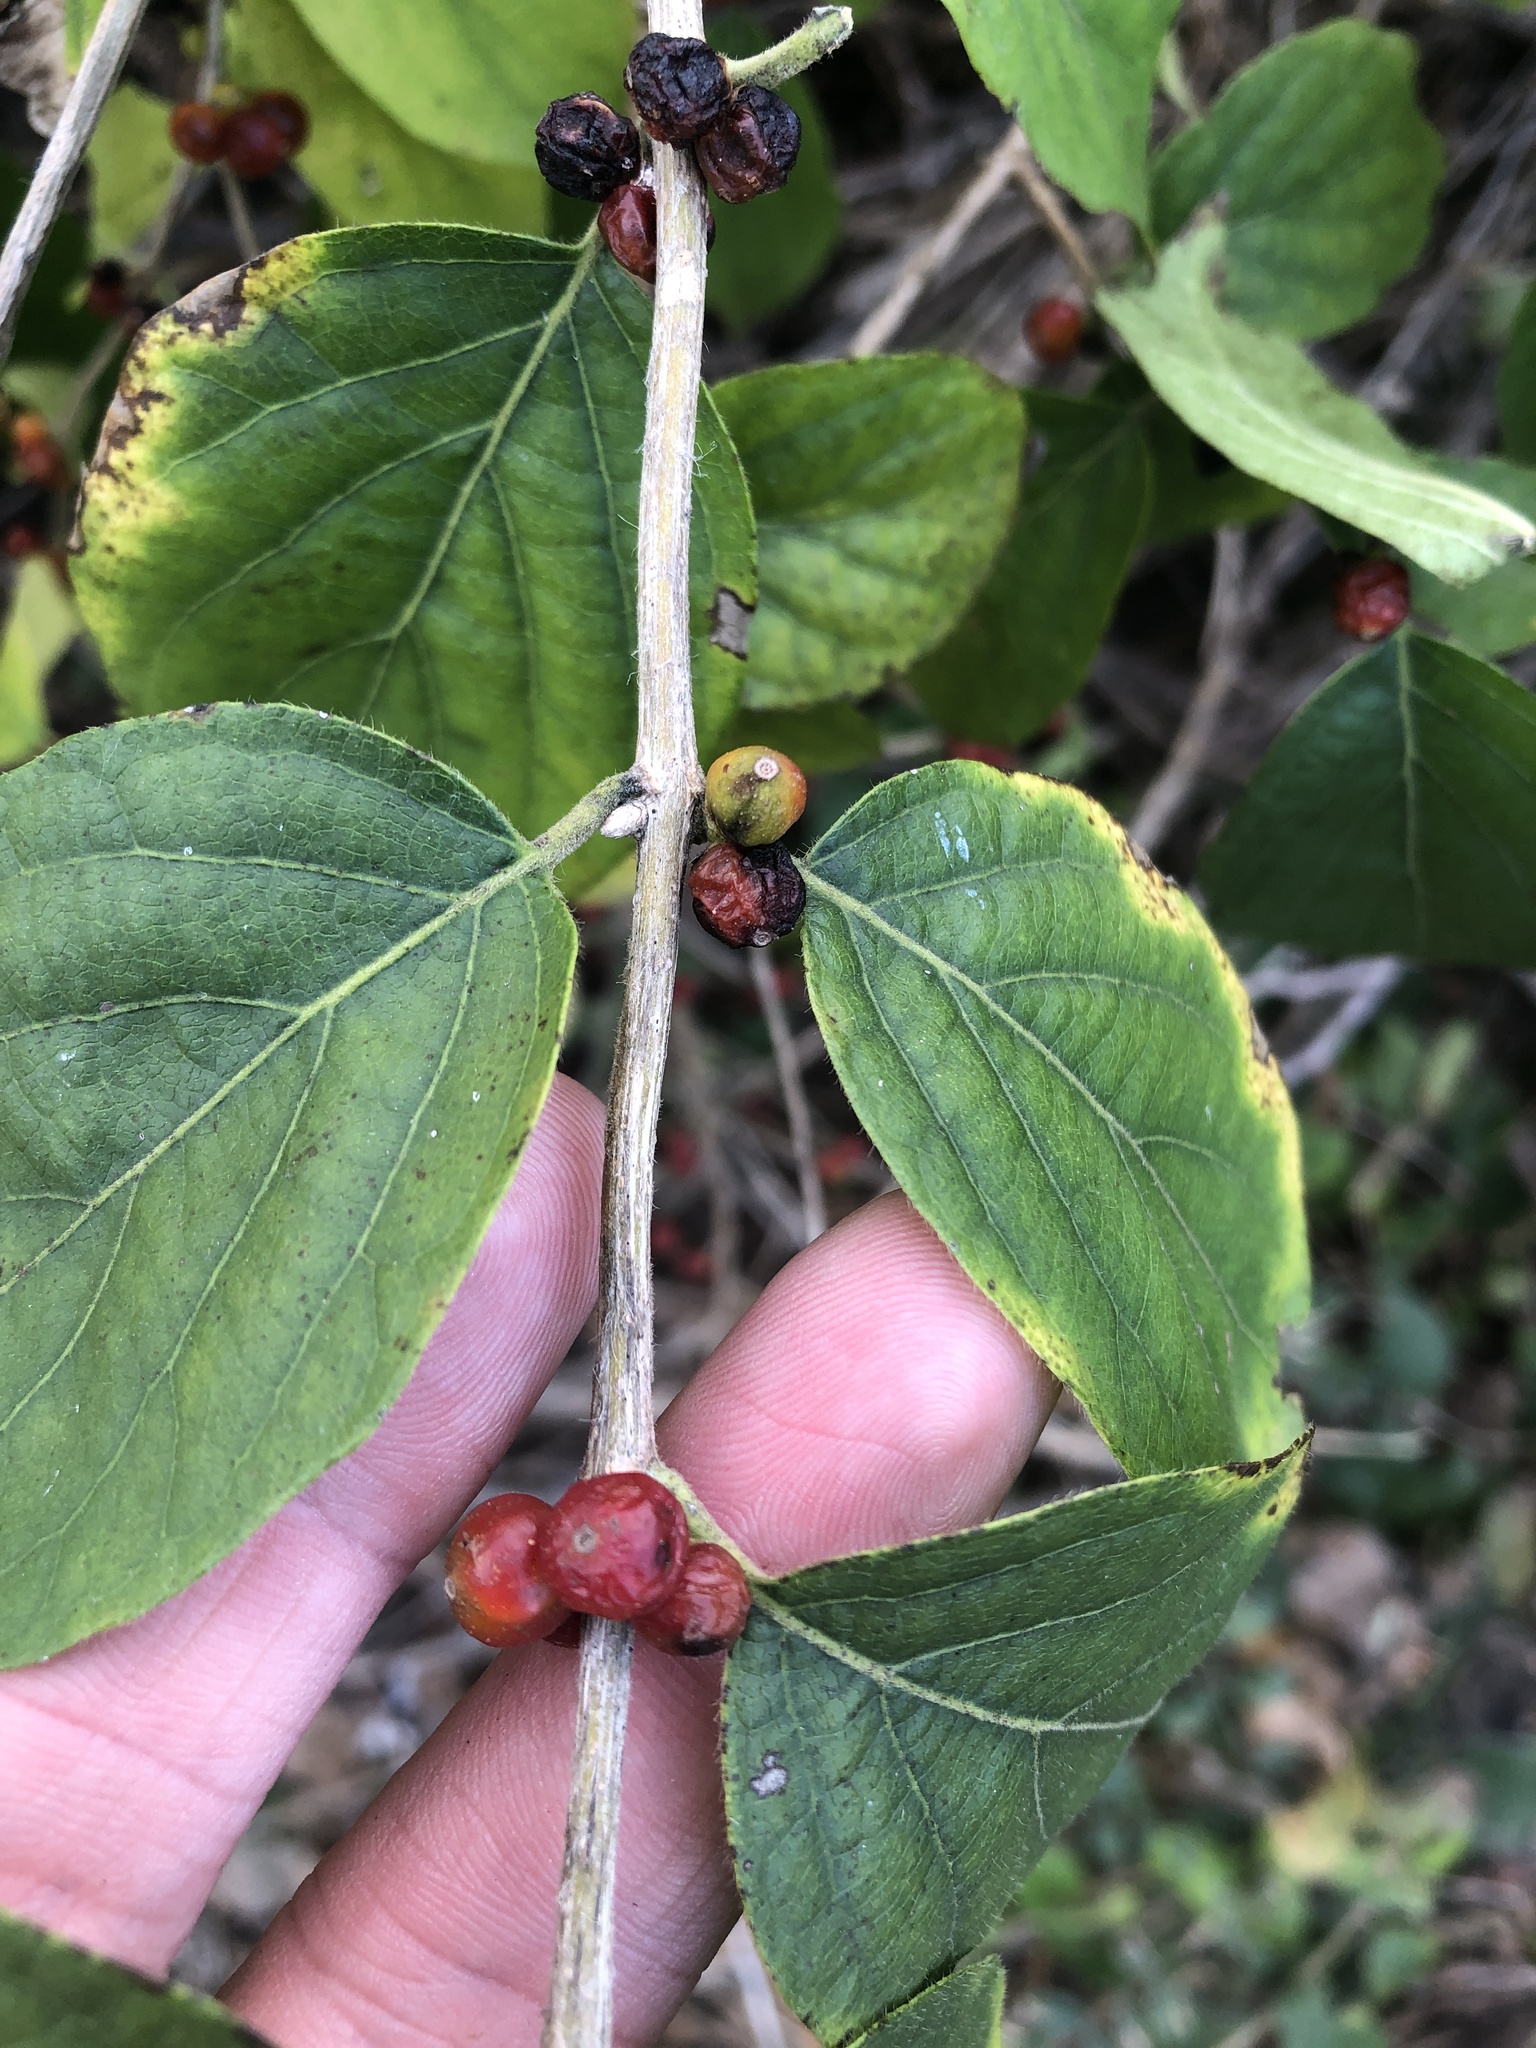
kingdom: Plantae
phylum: Tracheophyta
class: Magnoliopsida
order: Dipsacales
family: Caprifoliaceae
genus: Lonicera
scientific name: Lonicera maackii
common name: Amur honeysuckle
